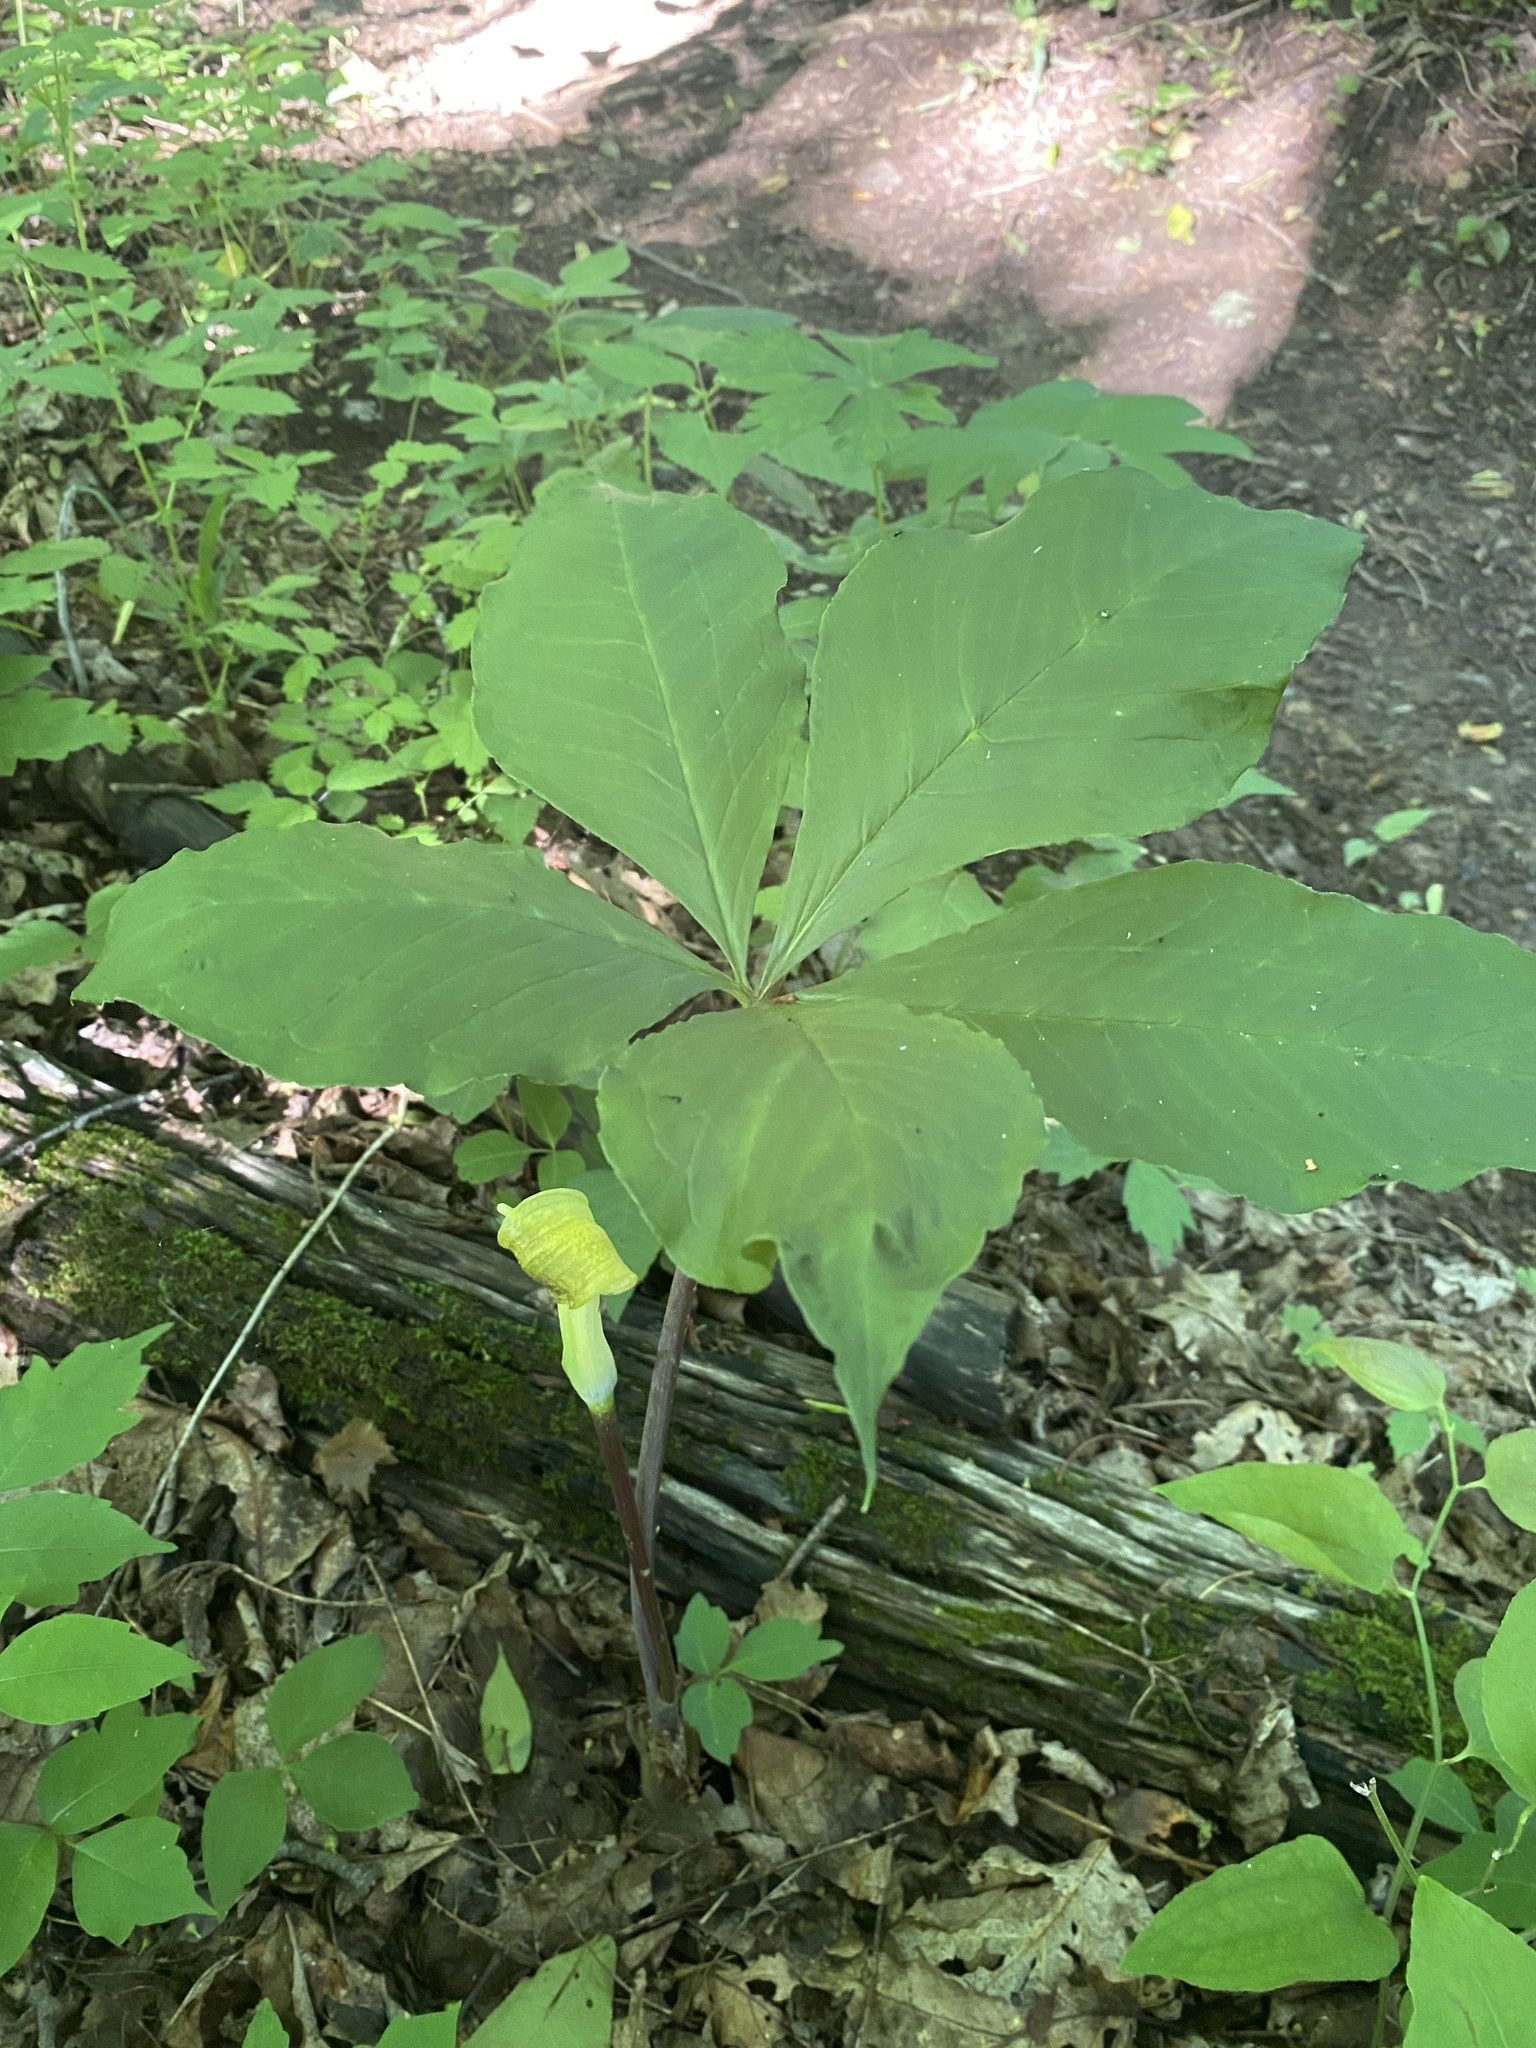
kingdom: Plantae
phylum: Tracheophyta
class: Liliopsida
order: Alismatales
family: Araceae
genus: Arisaema
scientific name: Arisaema quinatum
